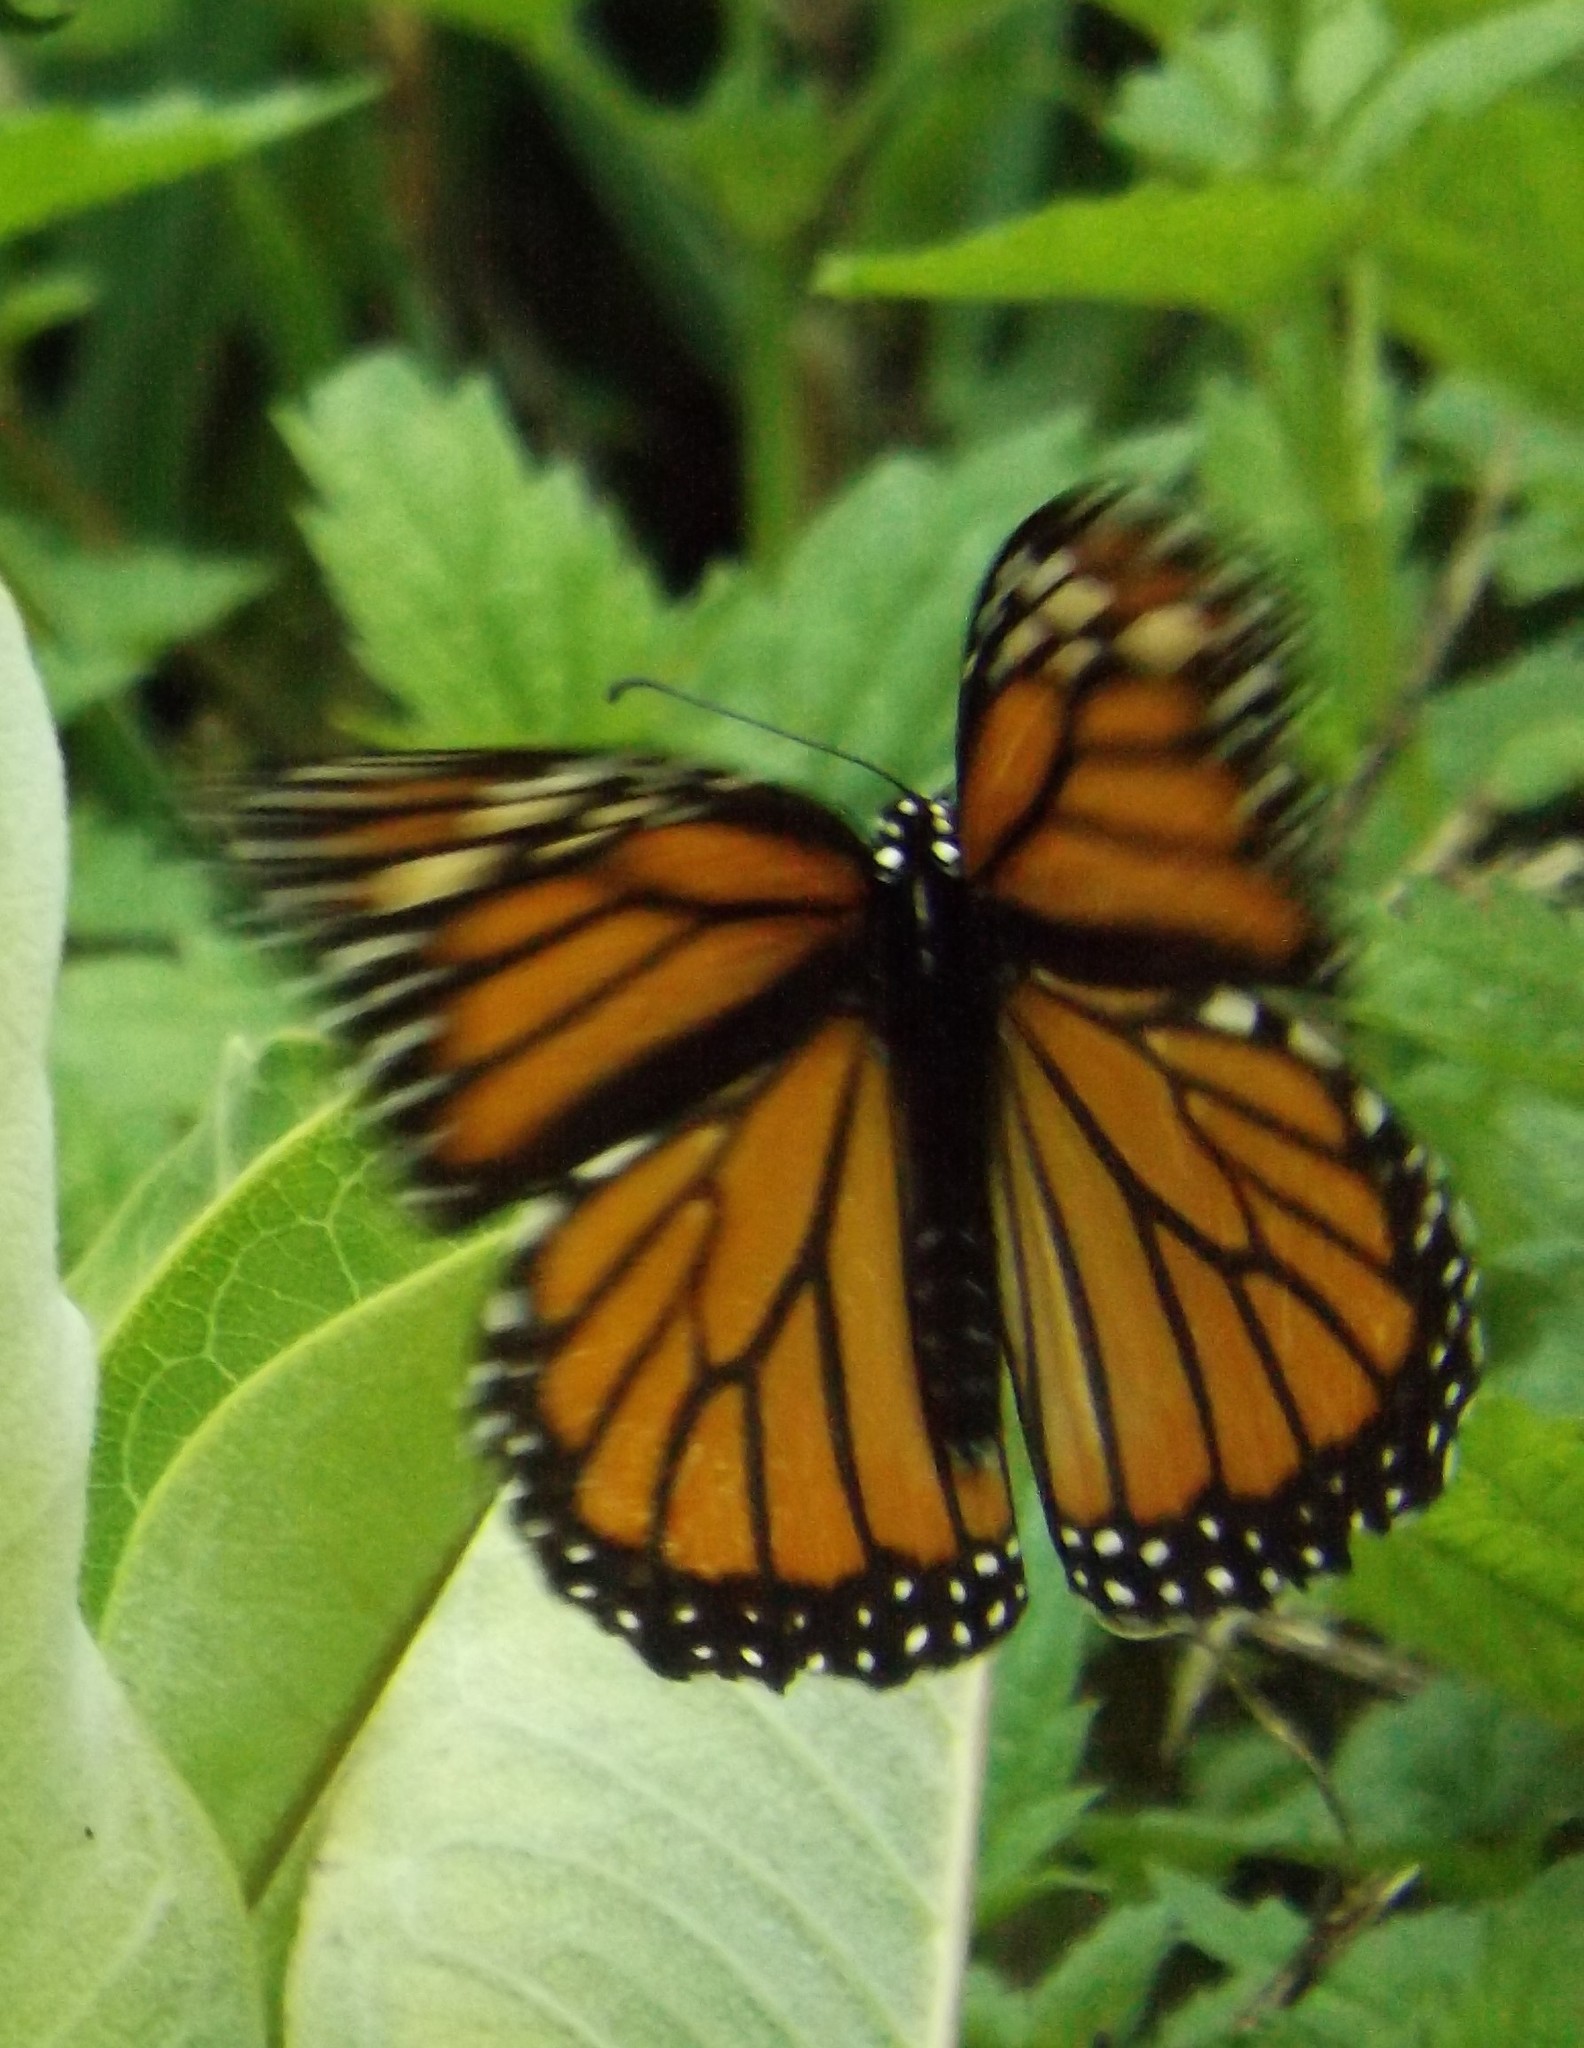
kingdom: Animalia
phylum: Arthropoda
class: Insecta
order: Lepidoptera
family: Nymphalidae
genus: Danaus
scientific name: Danaus plexippus
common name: Monarch
